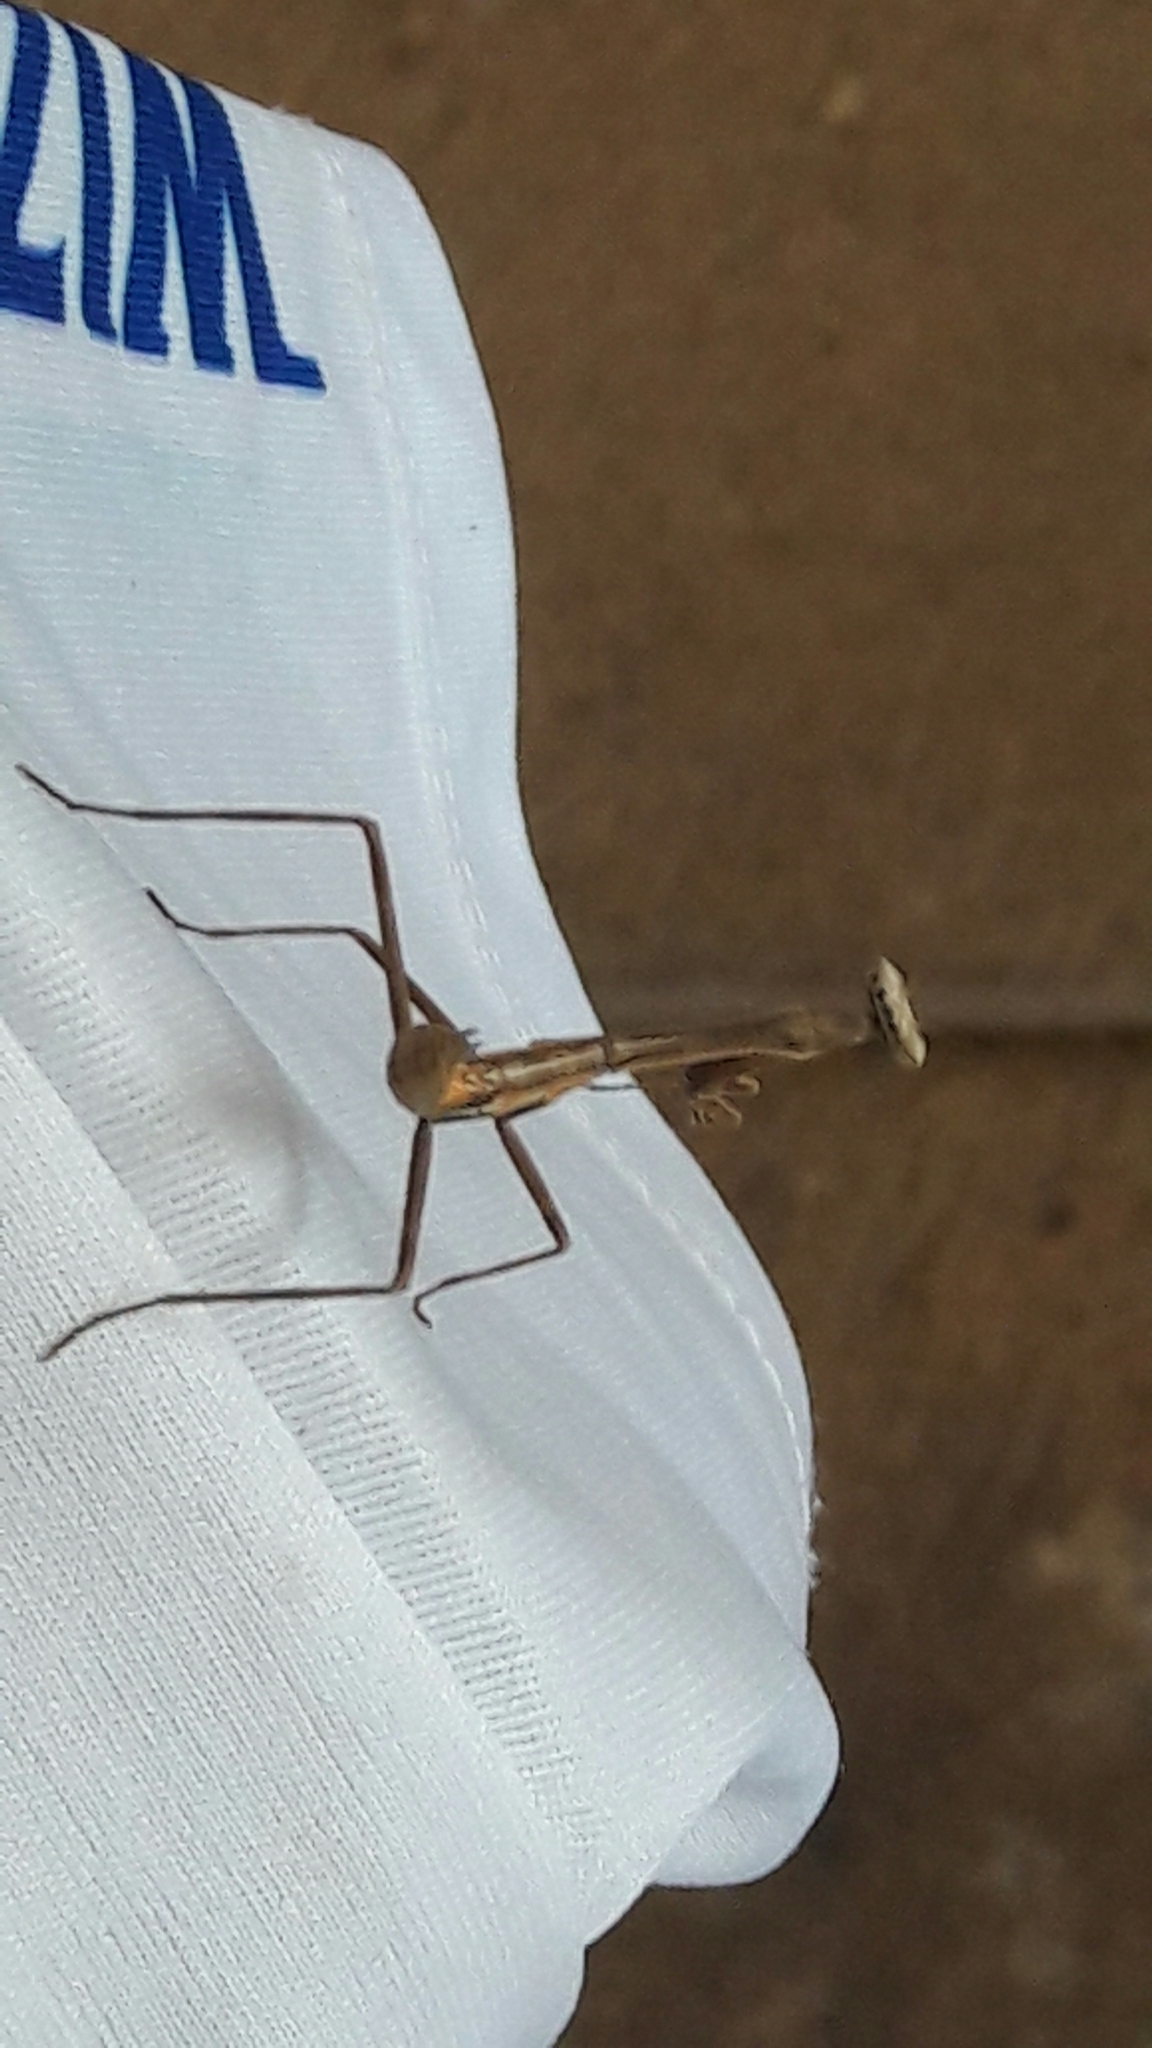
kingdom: Animalia
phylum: Arthropoda
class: Insecta
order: Mantodea
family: Mantidae
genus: Oxyopsis
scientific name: Oxyopsis
